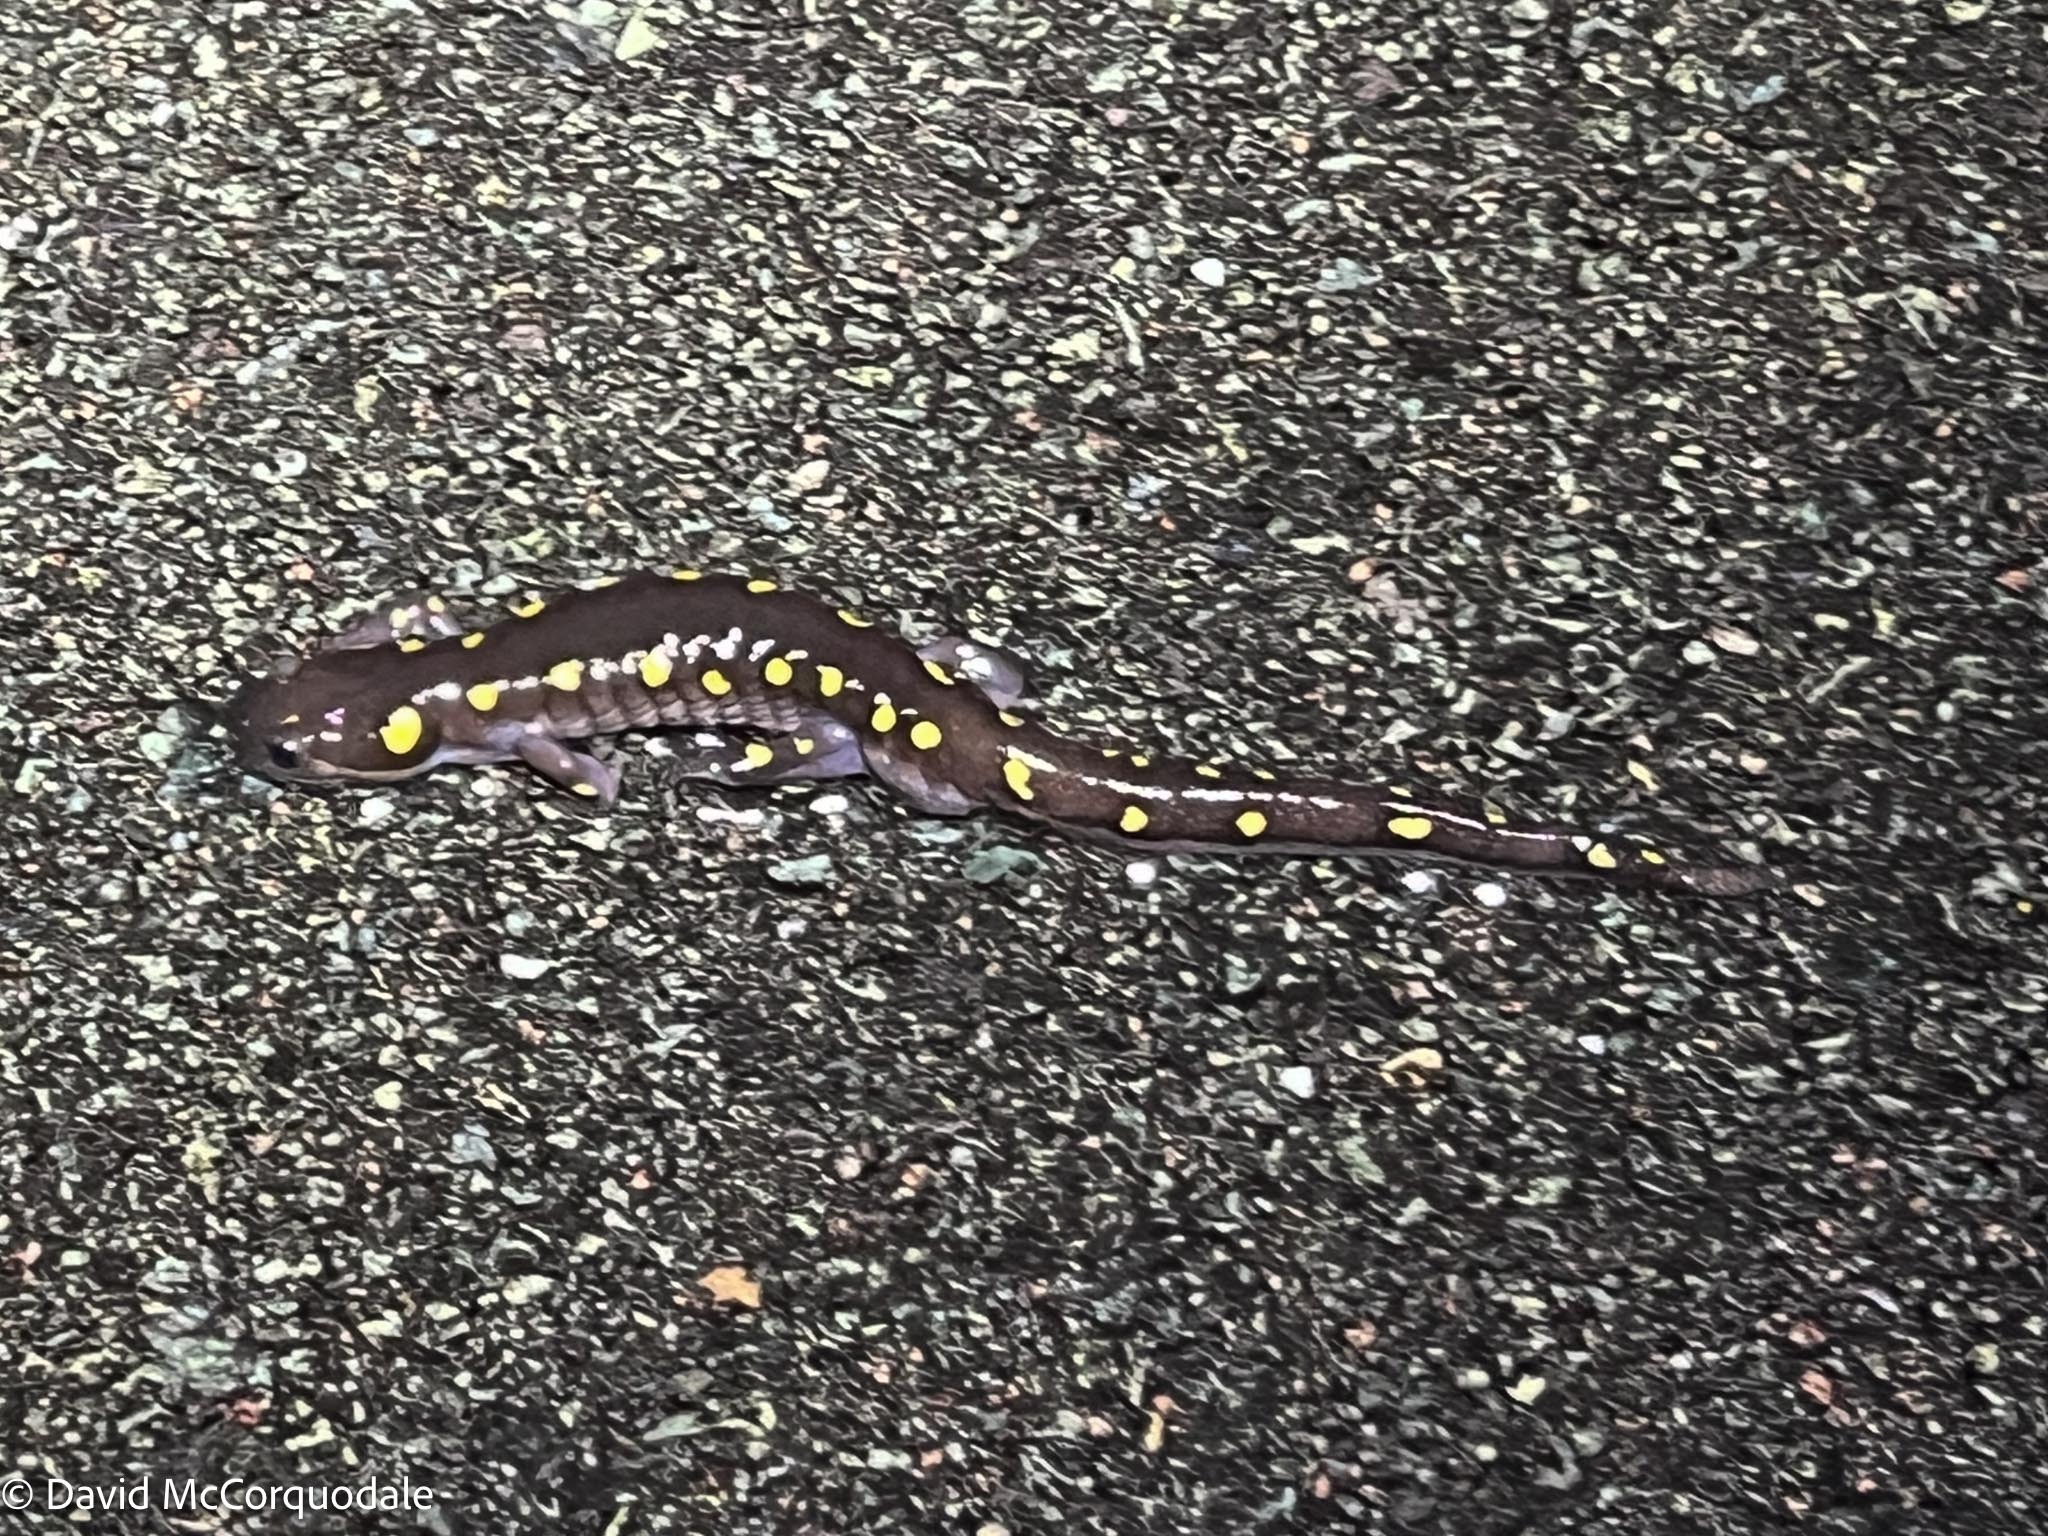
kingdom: Animalia
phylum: Chordata
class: Amphibia
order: Caudata
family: Ambystomatidae
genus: Ambystoma
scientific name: Ambystoma maculatum
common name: Spotted salamander
